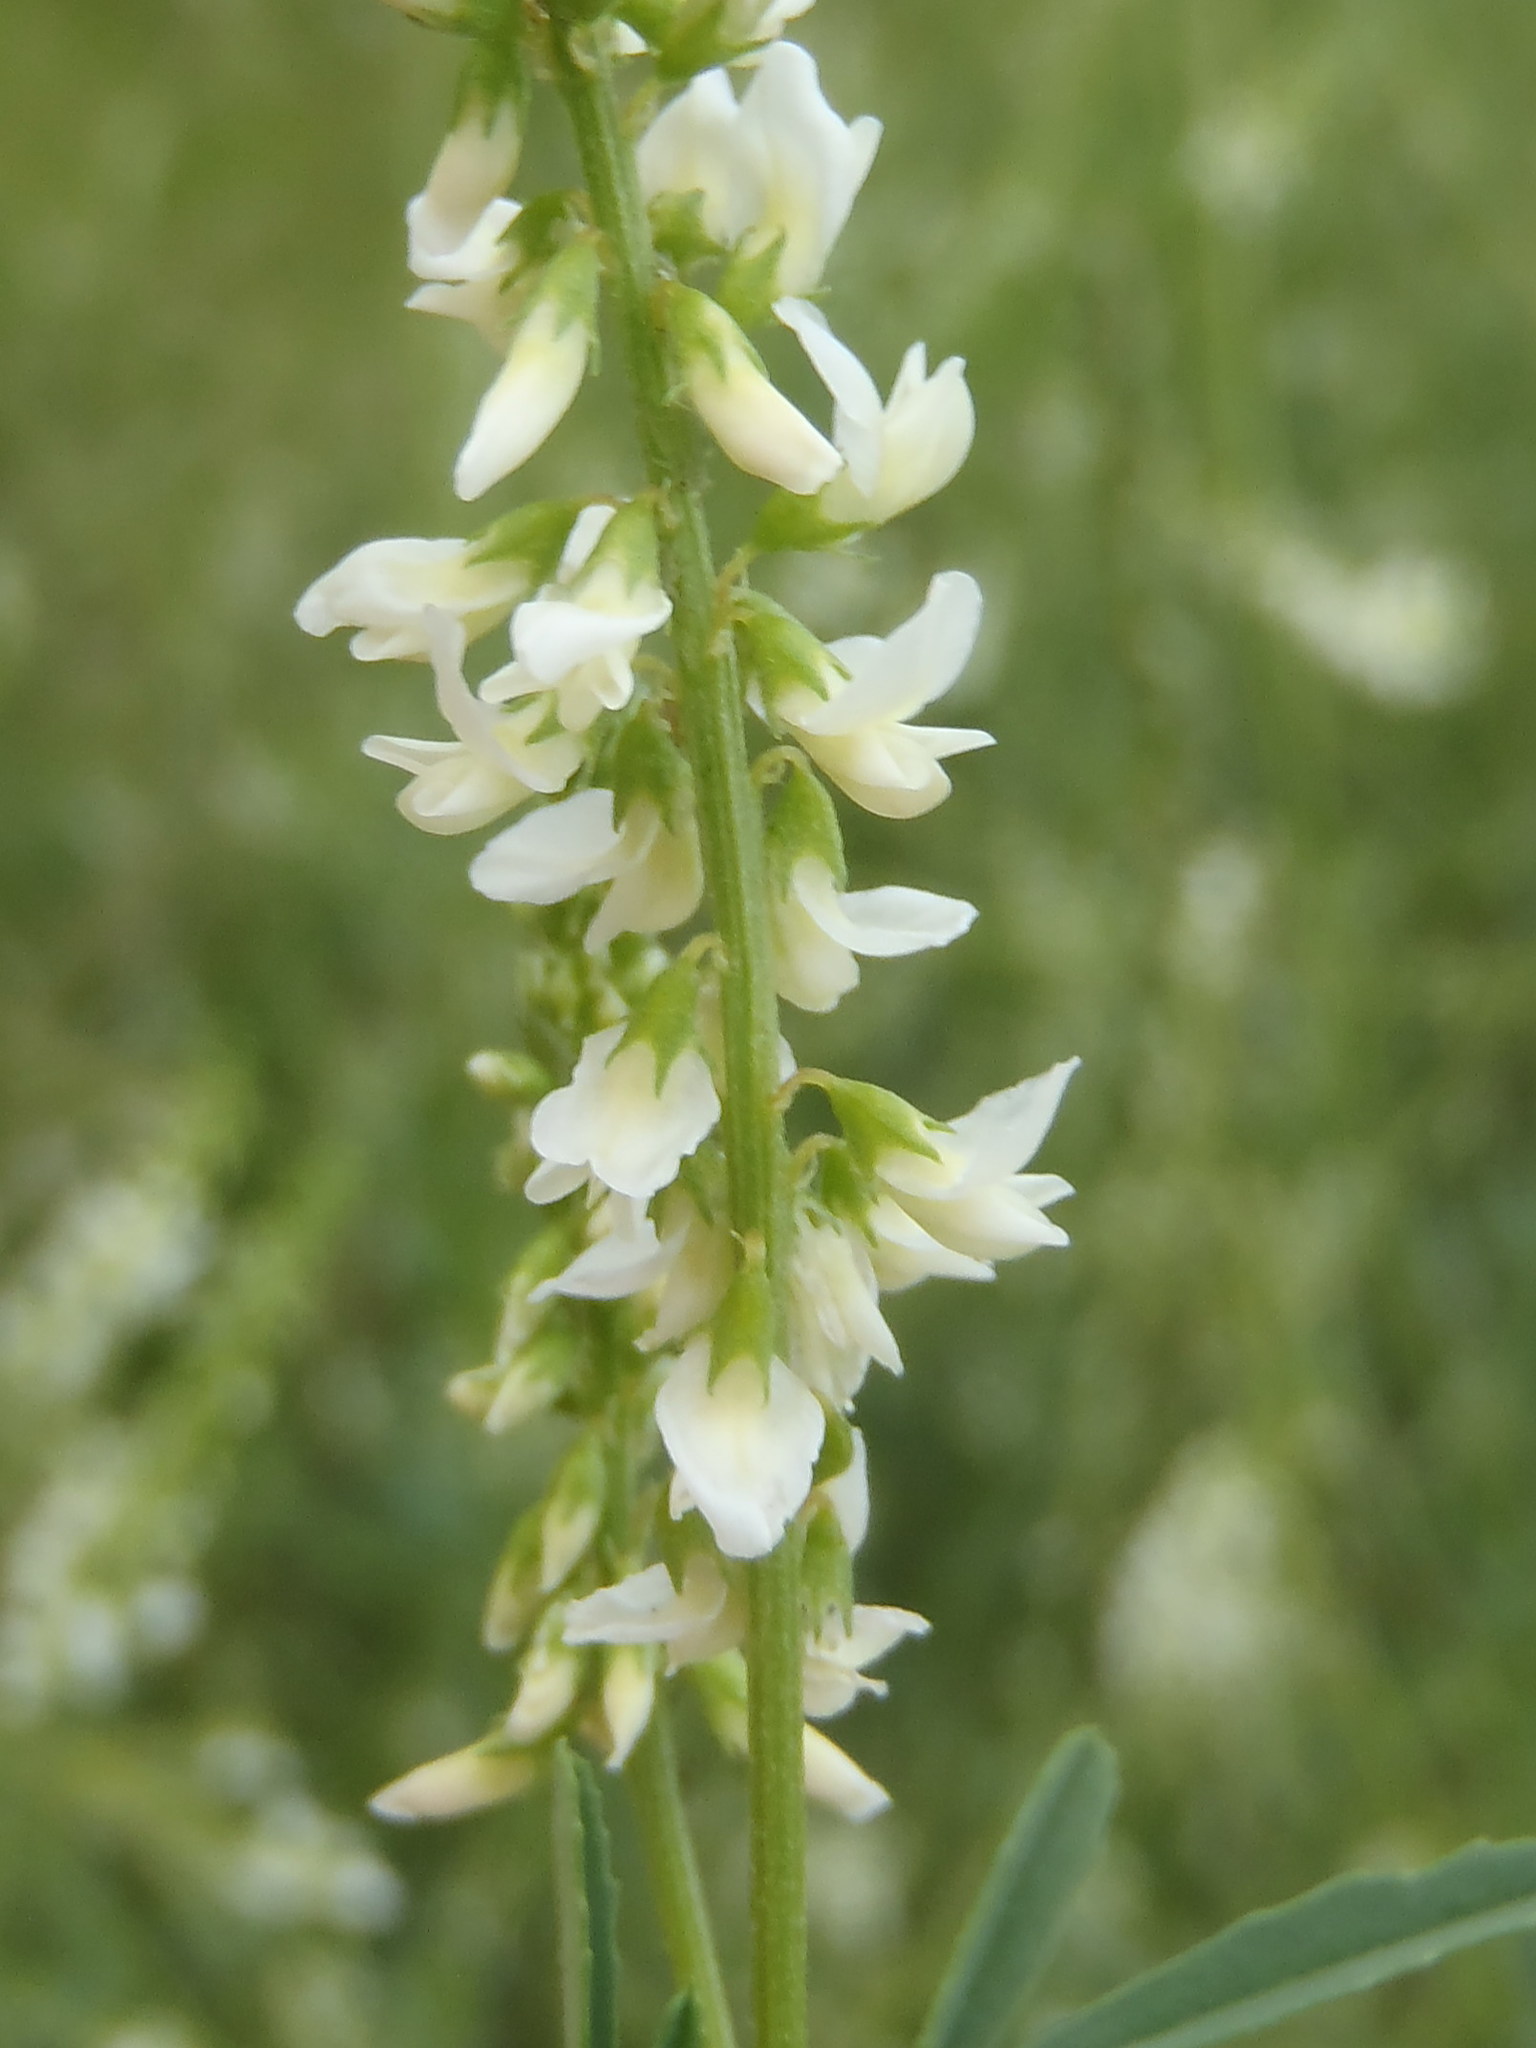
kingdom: Plantae
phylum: Tracheophyta
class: Magnoliopsida
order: Fabales
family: Fabaceae
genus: Melilotus
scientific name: Melilotus albus
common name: White melilot
